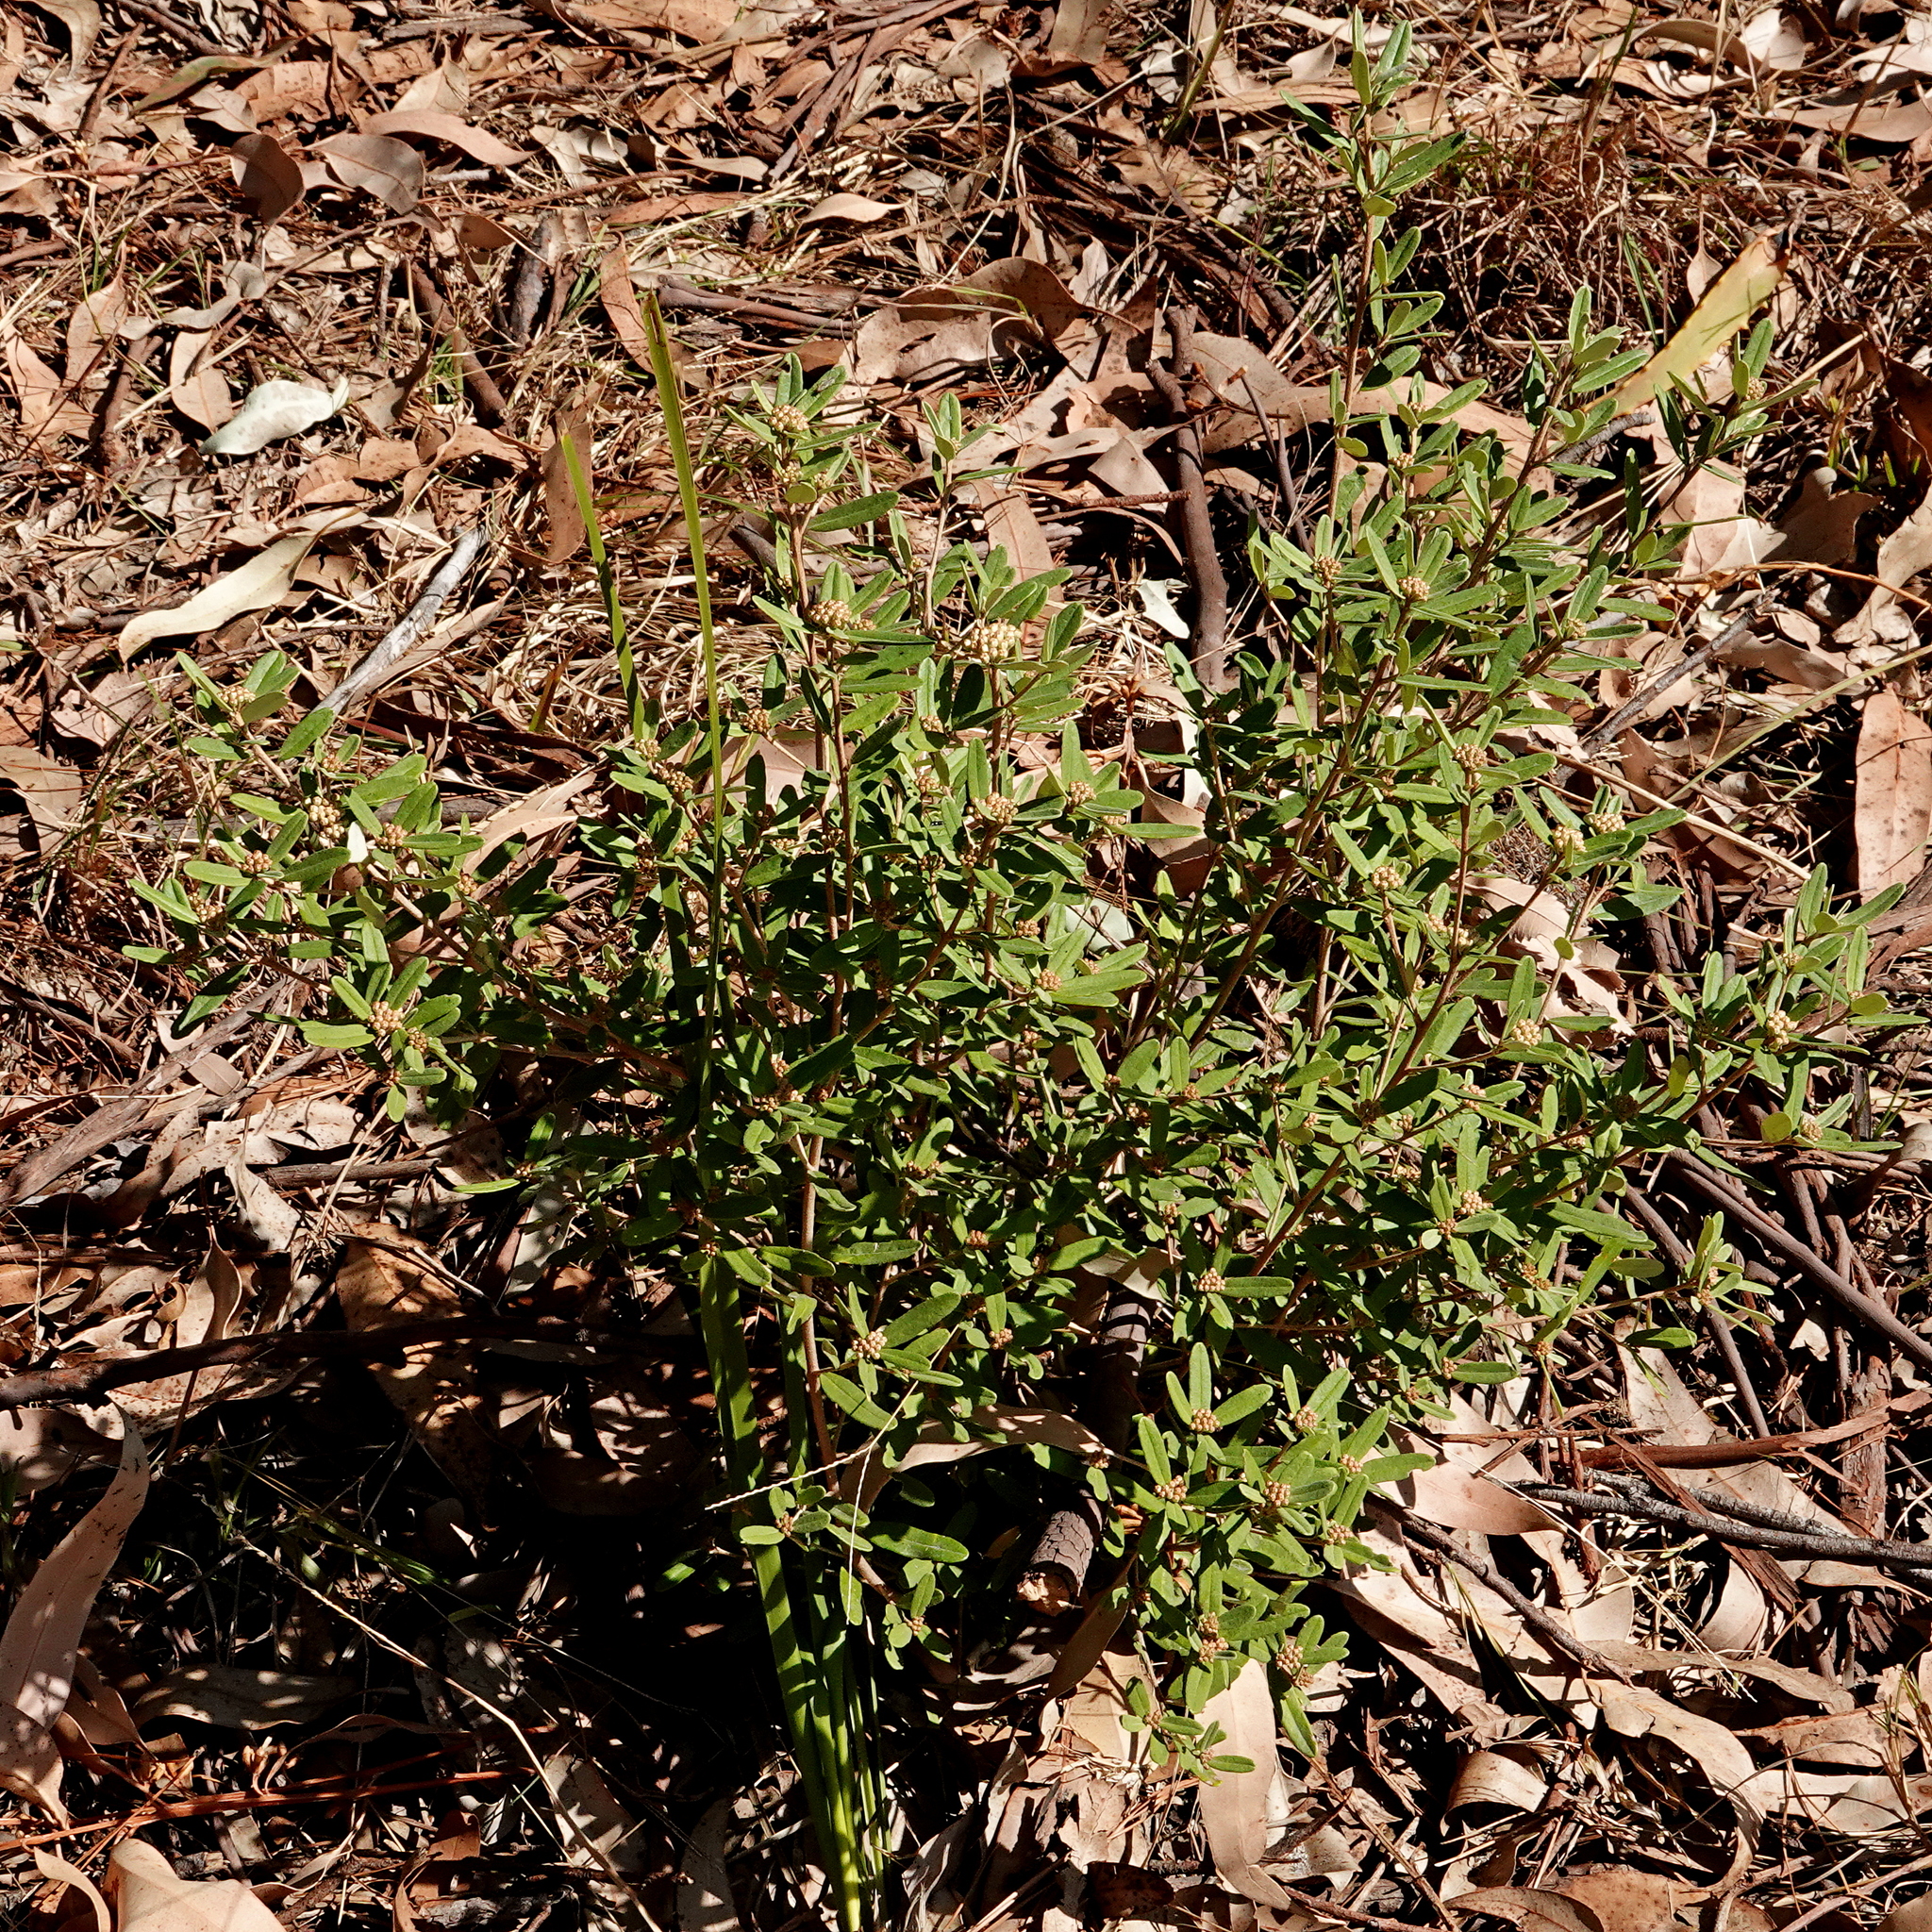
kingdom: Plantae
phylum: Tracheophyta
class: Magnoliopsida
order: Sapindales
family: Rutaceae
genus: Phebalium
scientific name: Phebalium squamulosum
